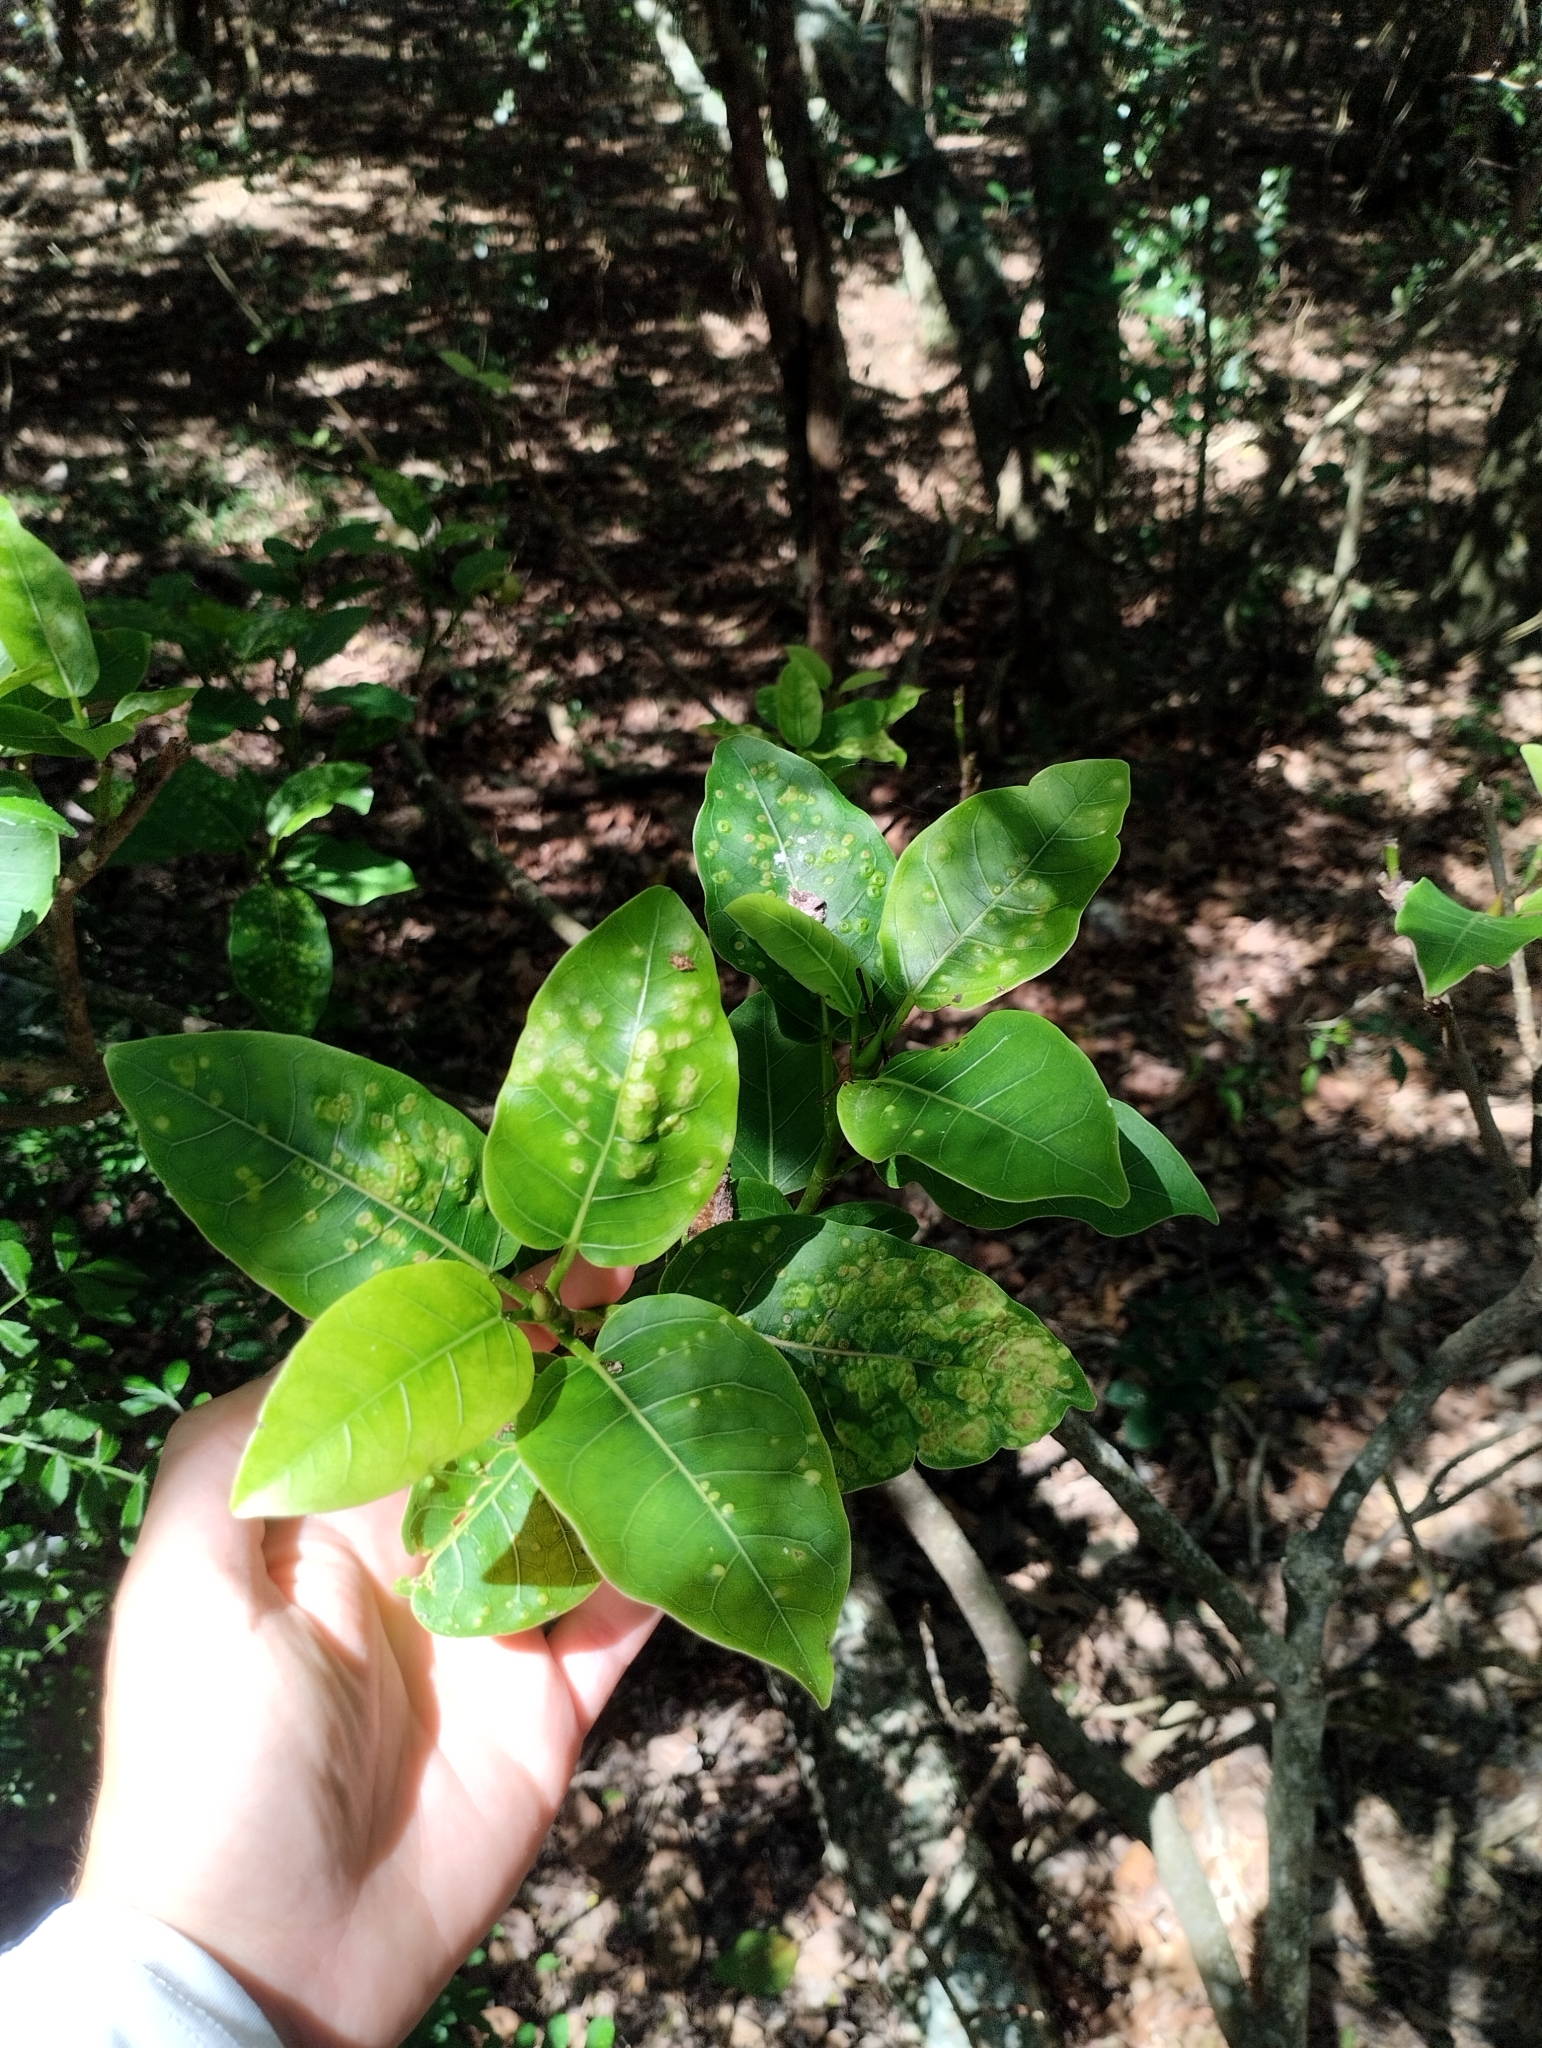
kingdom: Plantae
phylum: Tracheophyta
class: Magnoliopsida
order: Rosales
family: Moraceae
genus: Ficus
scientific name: Ficus luschnathiana
